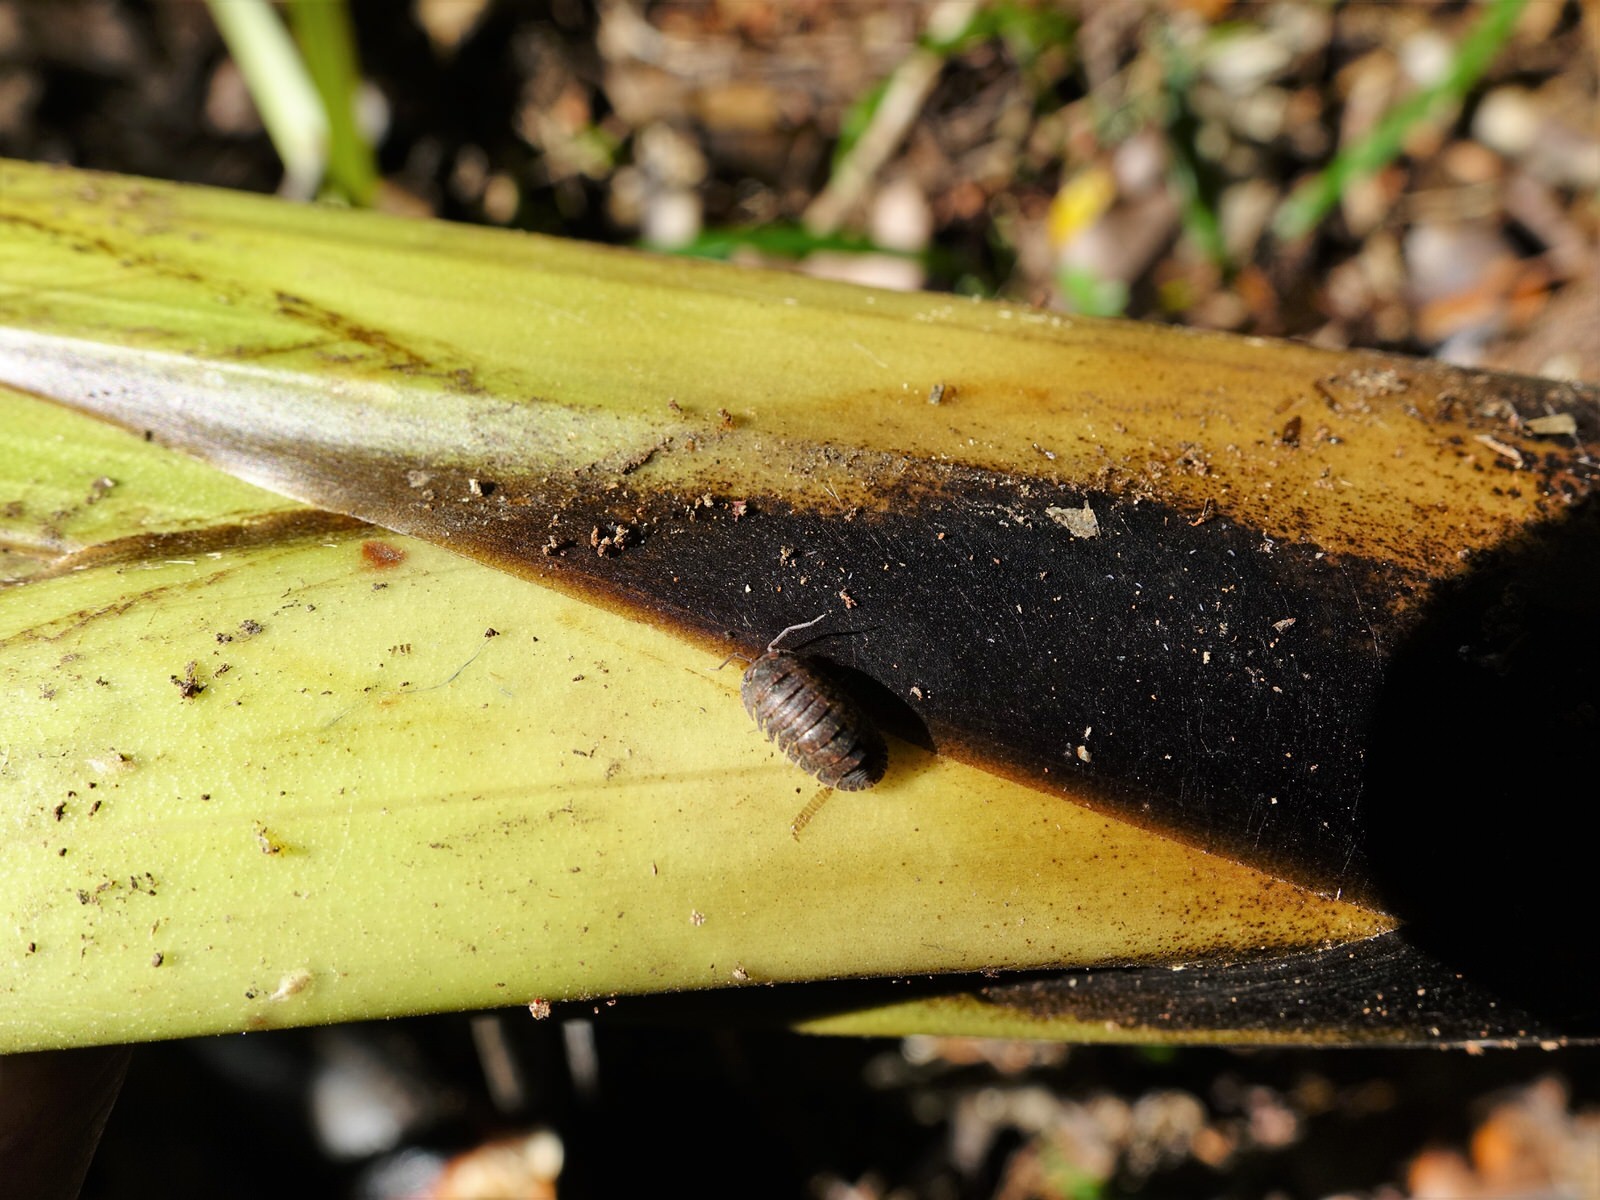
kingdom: Animalia
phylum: Arthropoda
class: Malacostraca
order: Isopoda
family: Armadillidae
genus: Cubaris
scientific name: Cubaris tarangensis
